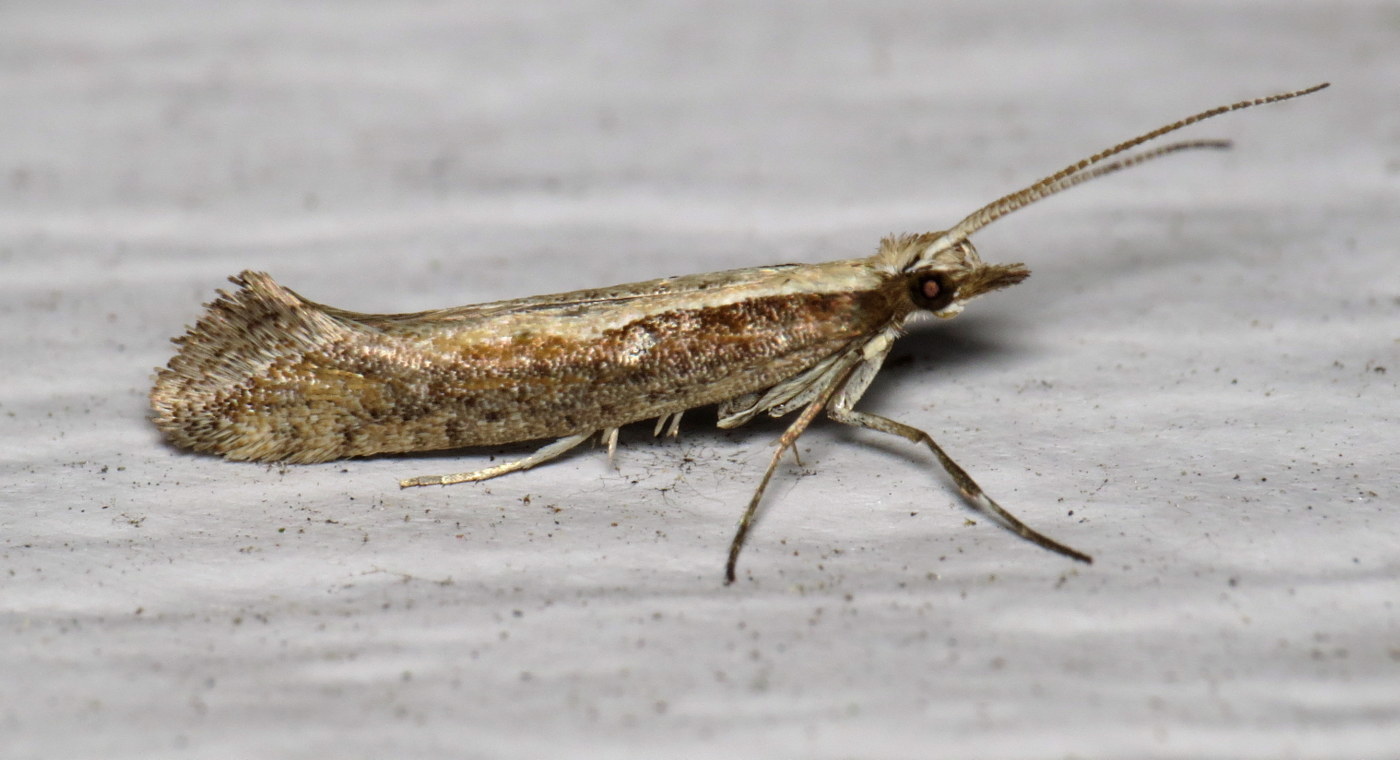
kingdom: Animalia
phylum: Arthropoda
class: Insecta
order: Lepidoptera
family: Plutellidae
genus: Plutella
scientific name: Plutella xylostella
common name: Diamond-back moth
